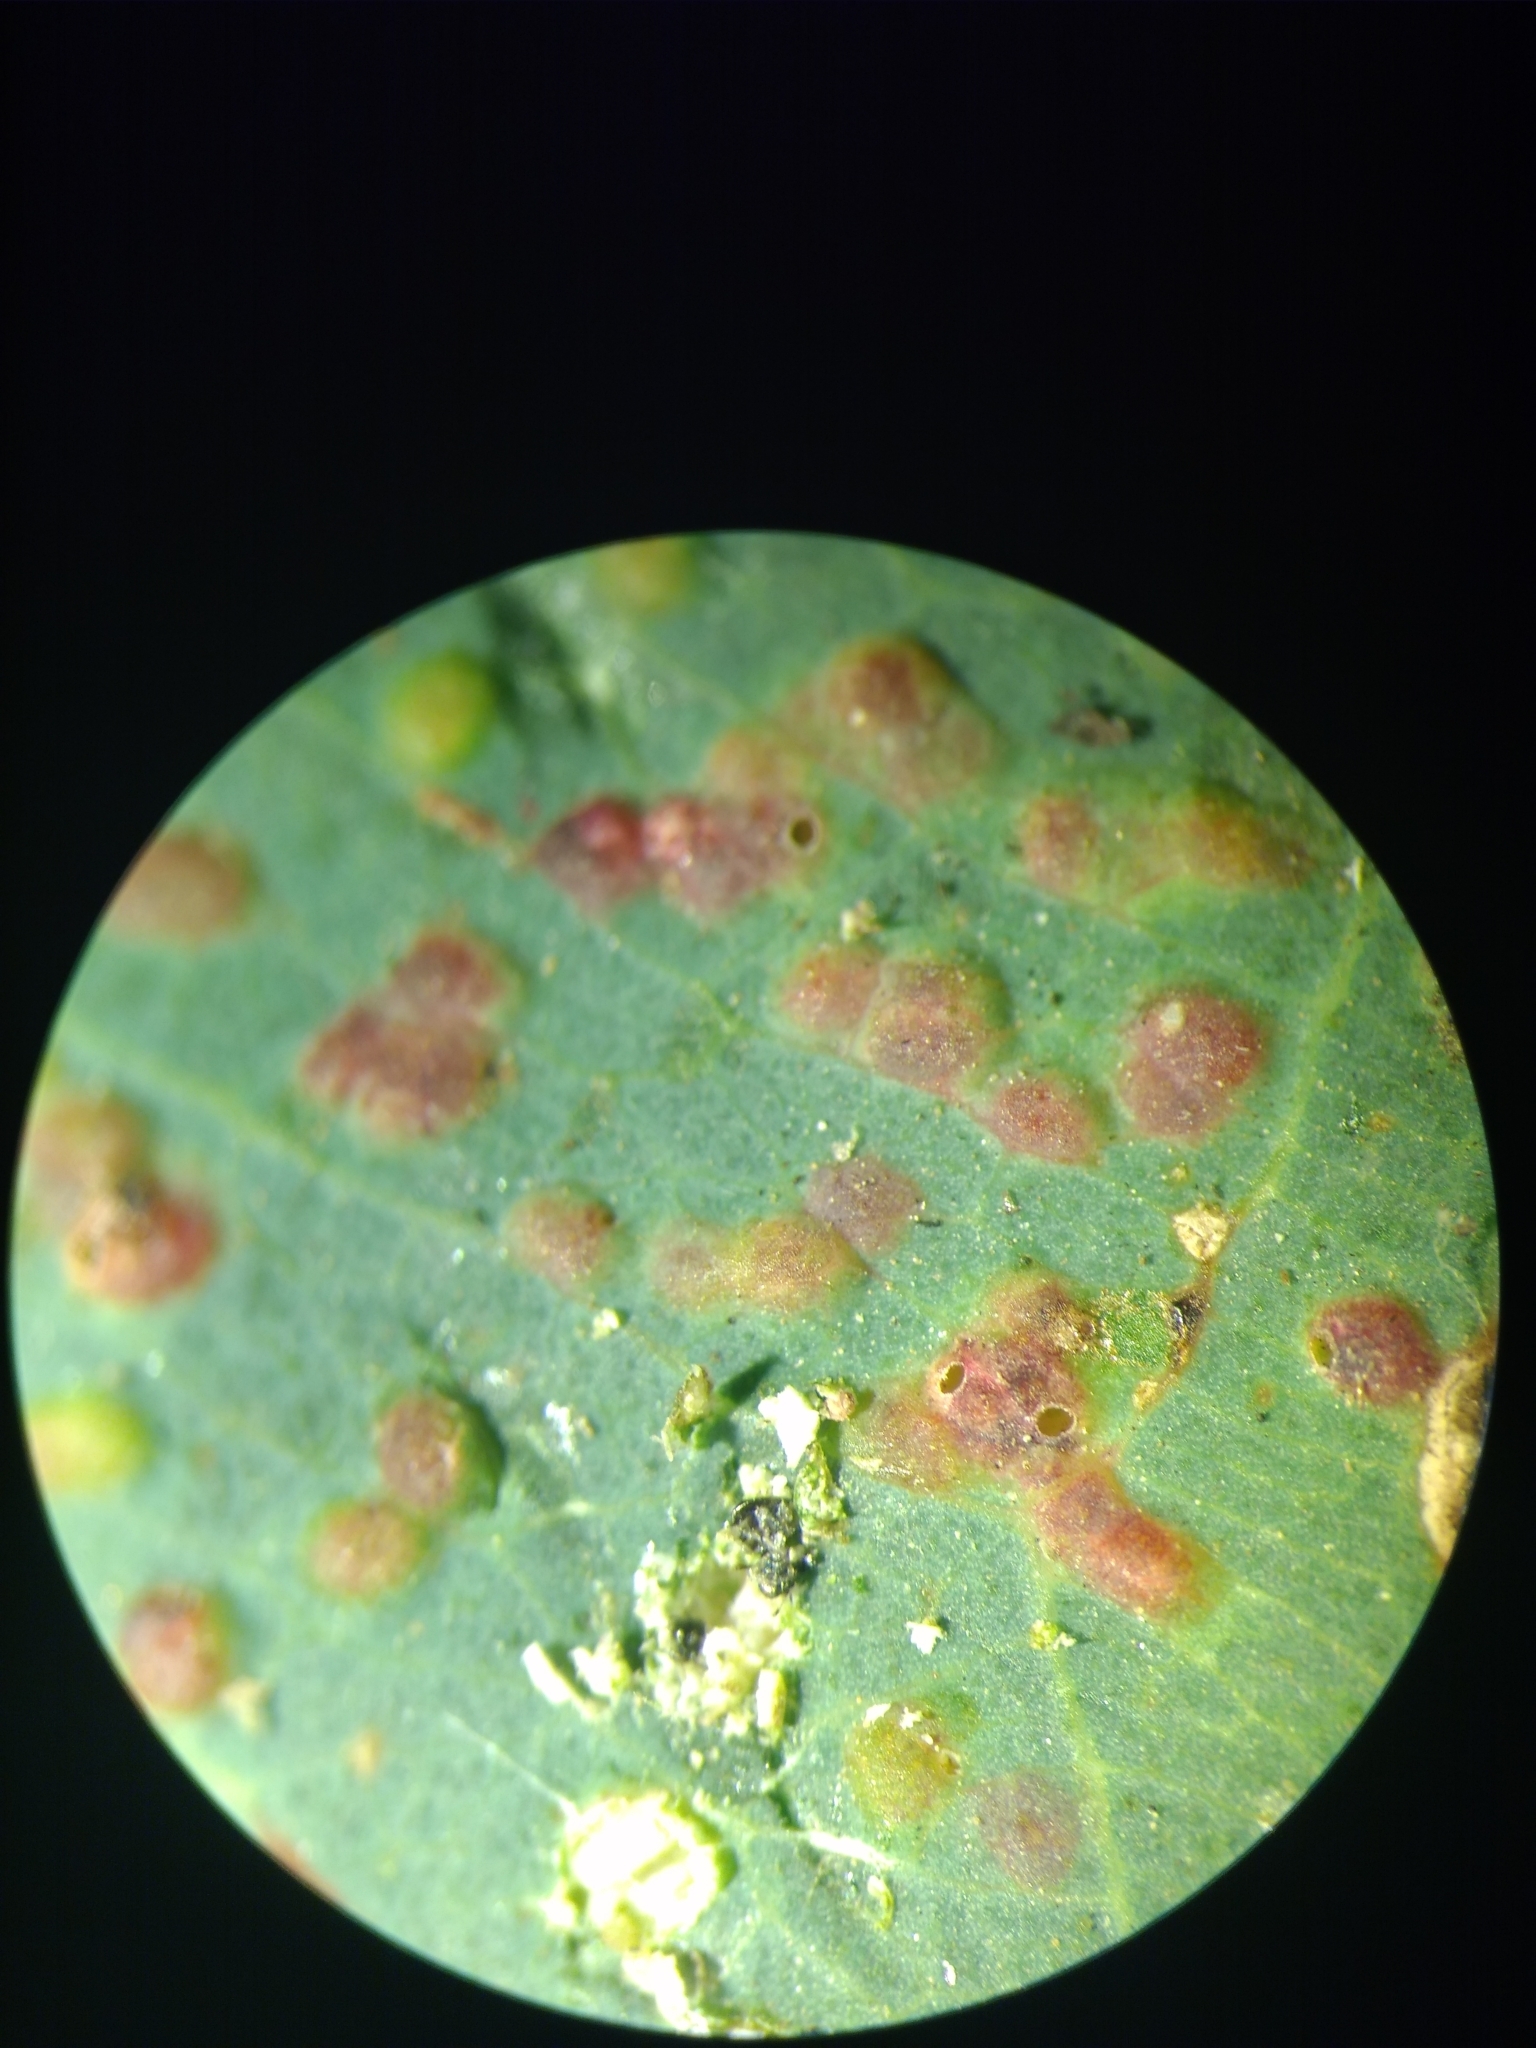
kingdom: Animalia
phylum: Arthropoda
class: Insecta
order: Hymenoptera
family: Eulophidae
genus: Ophelimus
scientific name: Ophelimus maskelli
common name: Gall wasp
